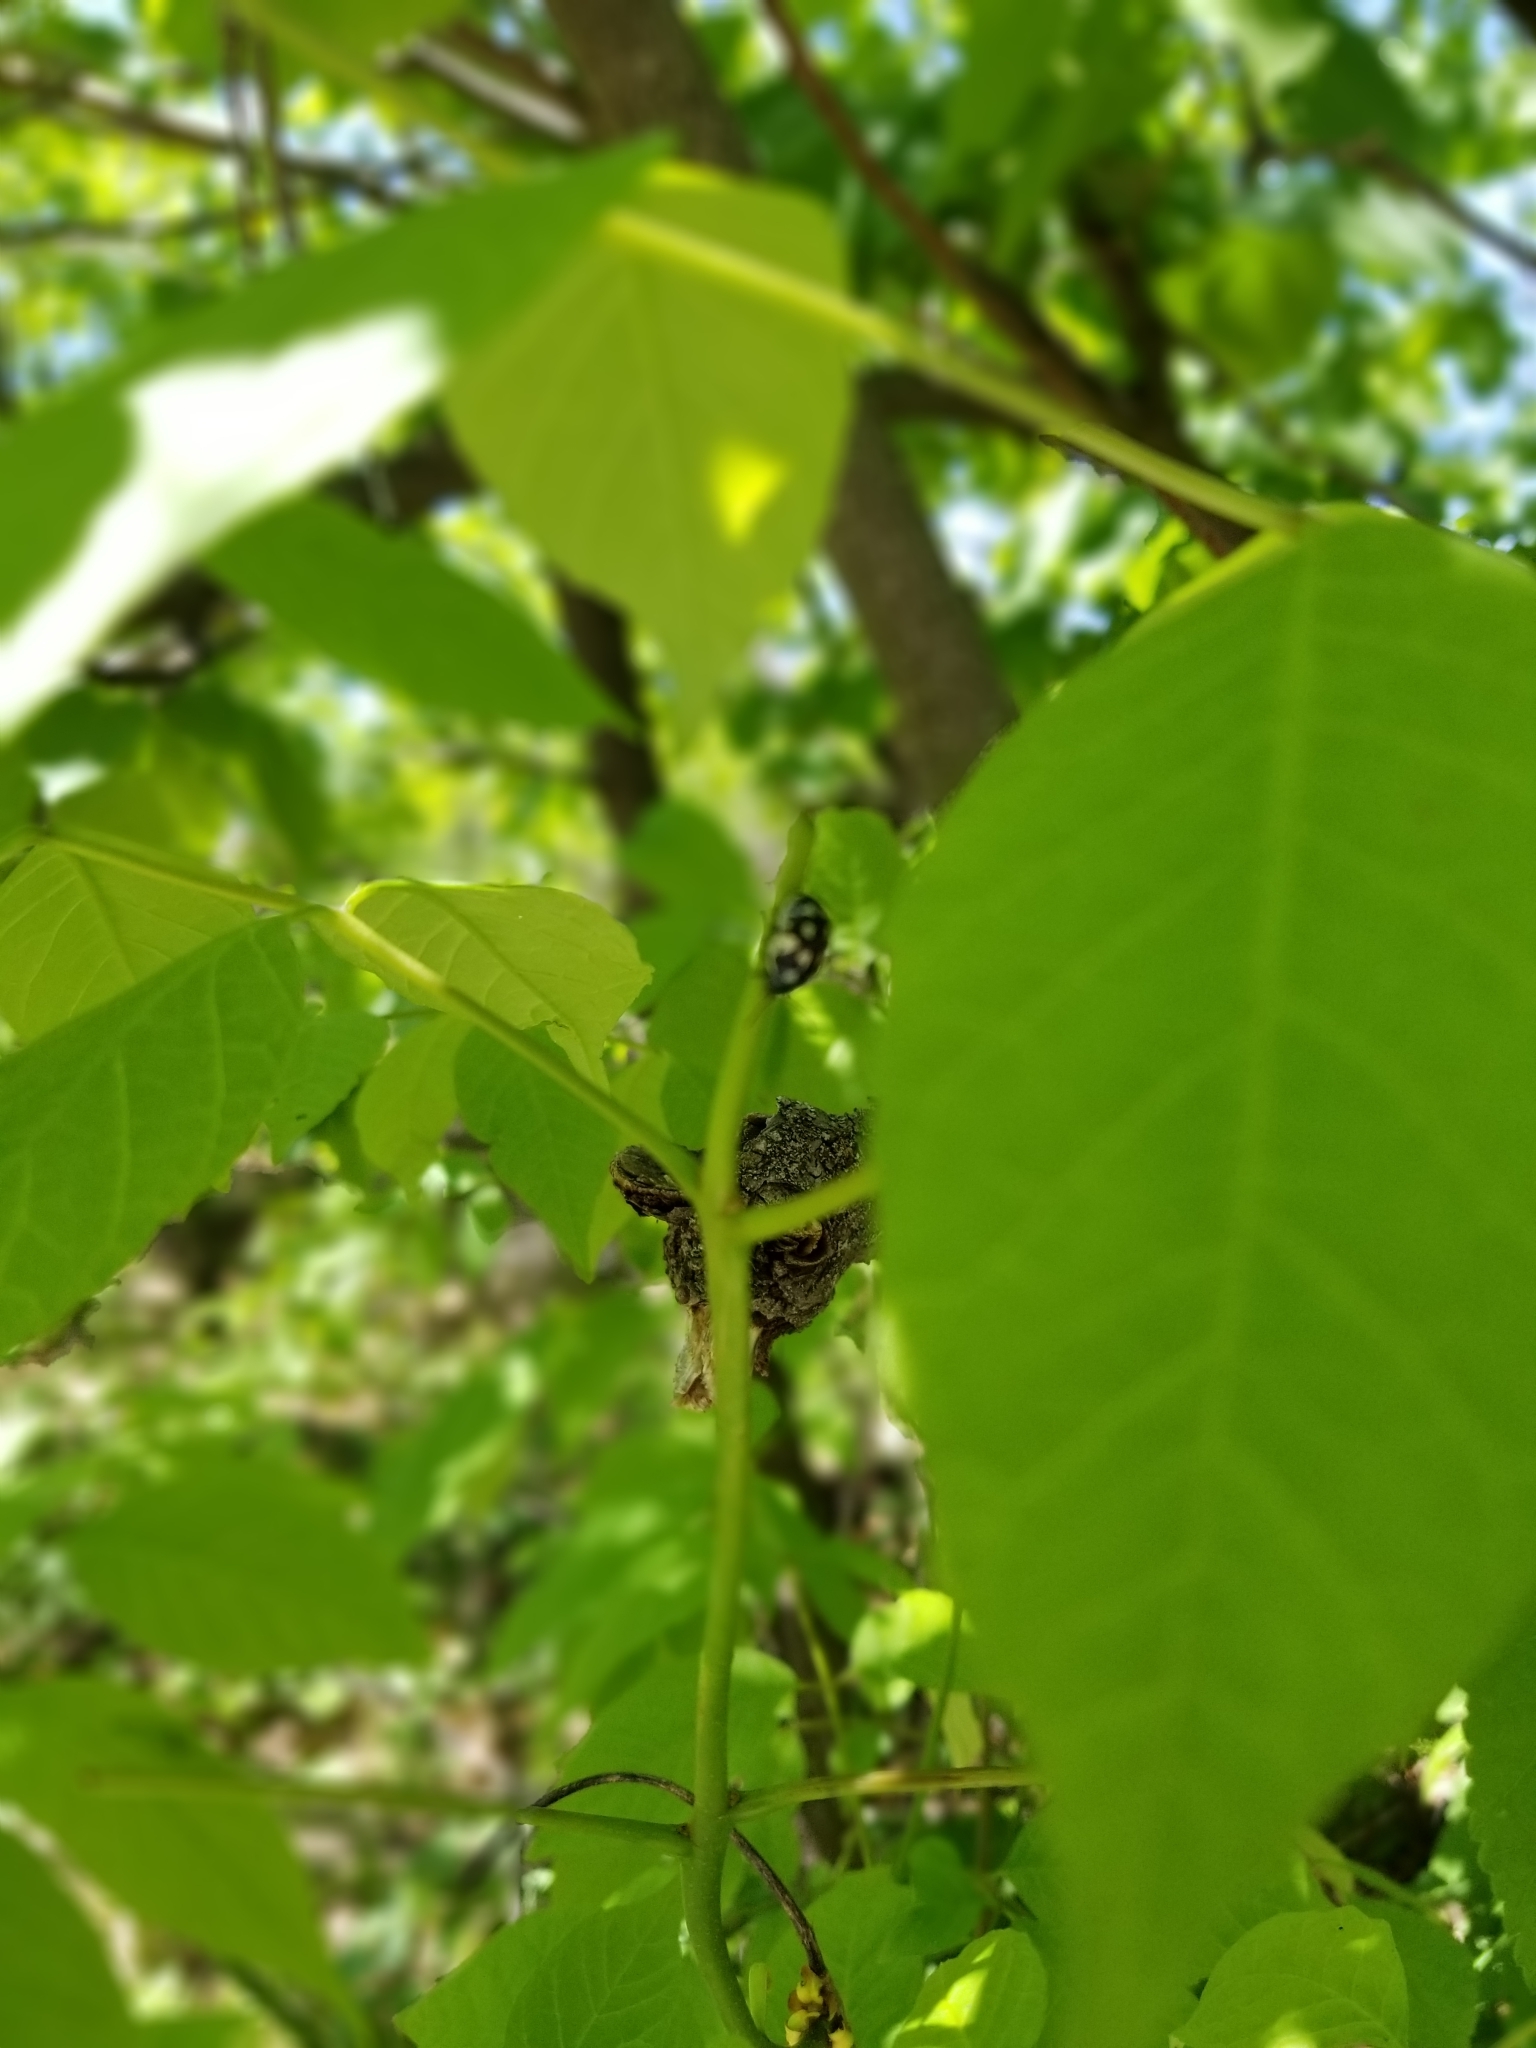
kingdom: Animalia
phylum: Arthropoda
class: Insecta
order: Coleoptera
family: Chrysomelidae
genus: Calligrapha
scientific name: Calligrapha pnirsa
